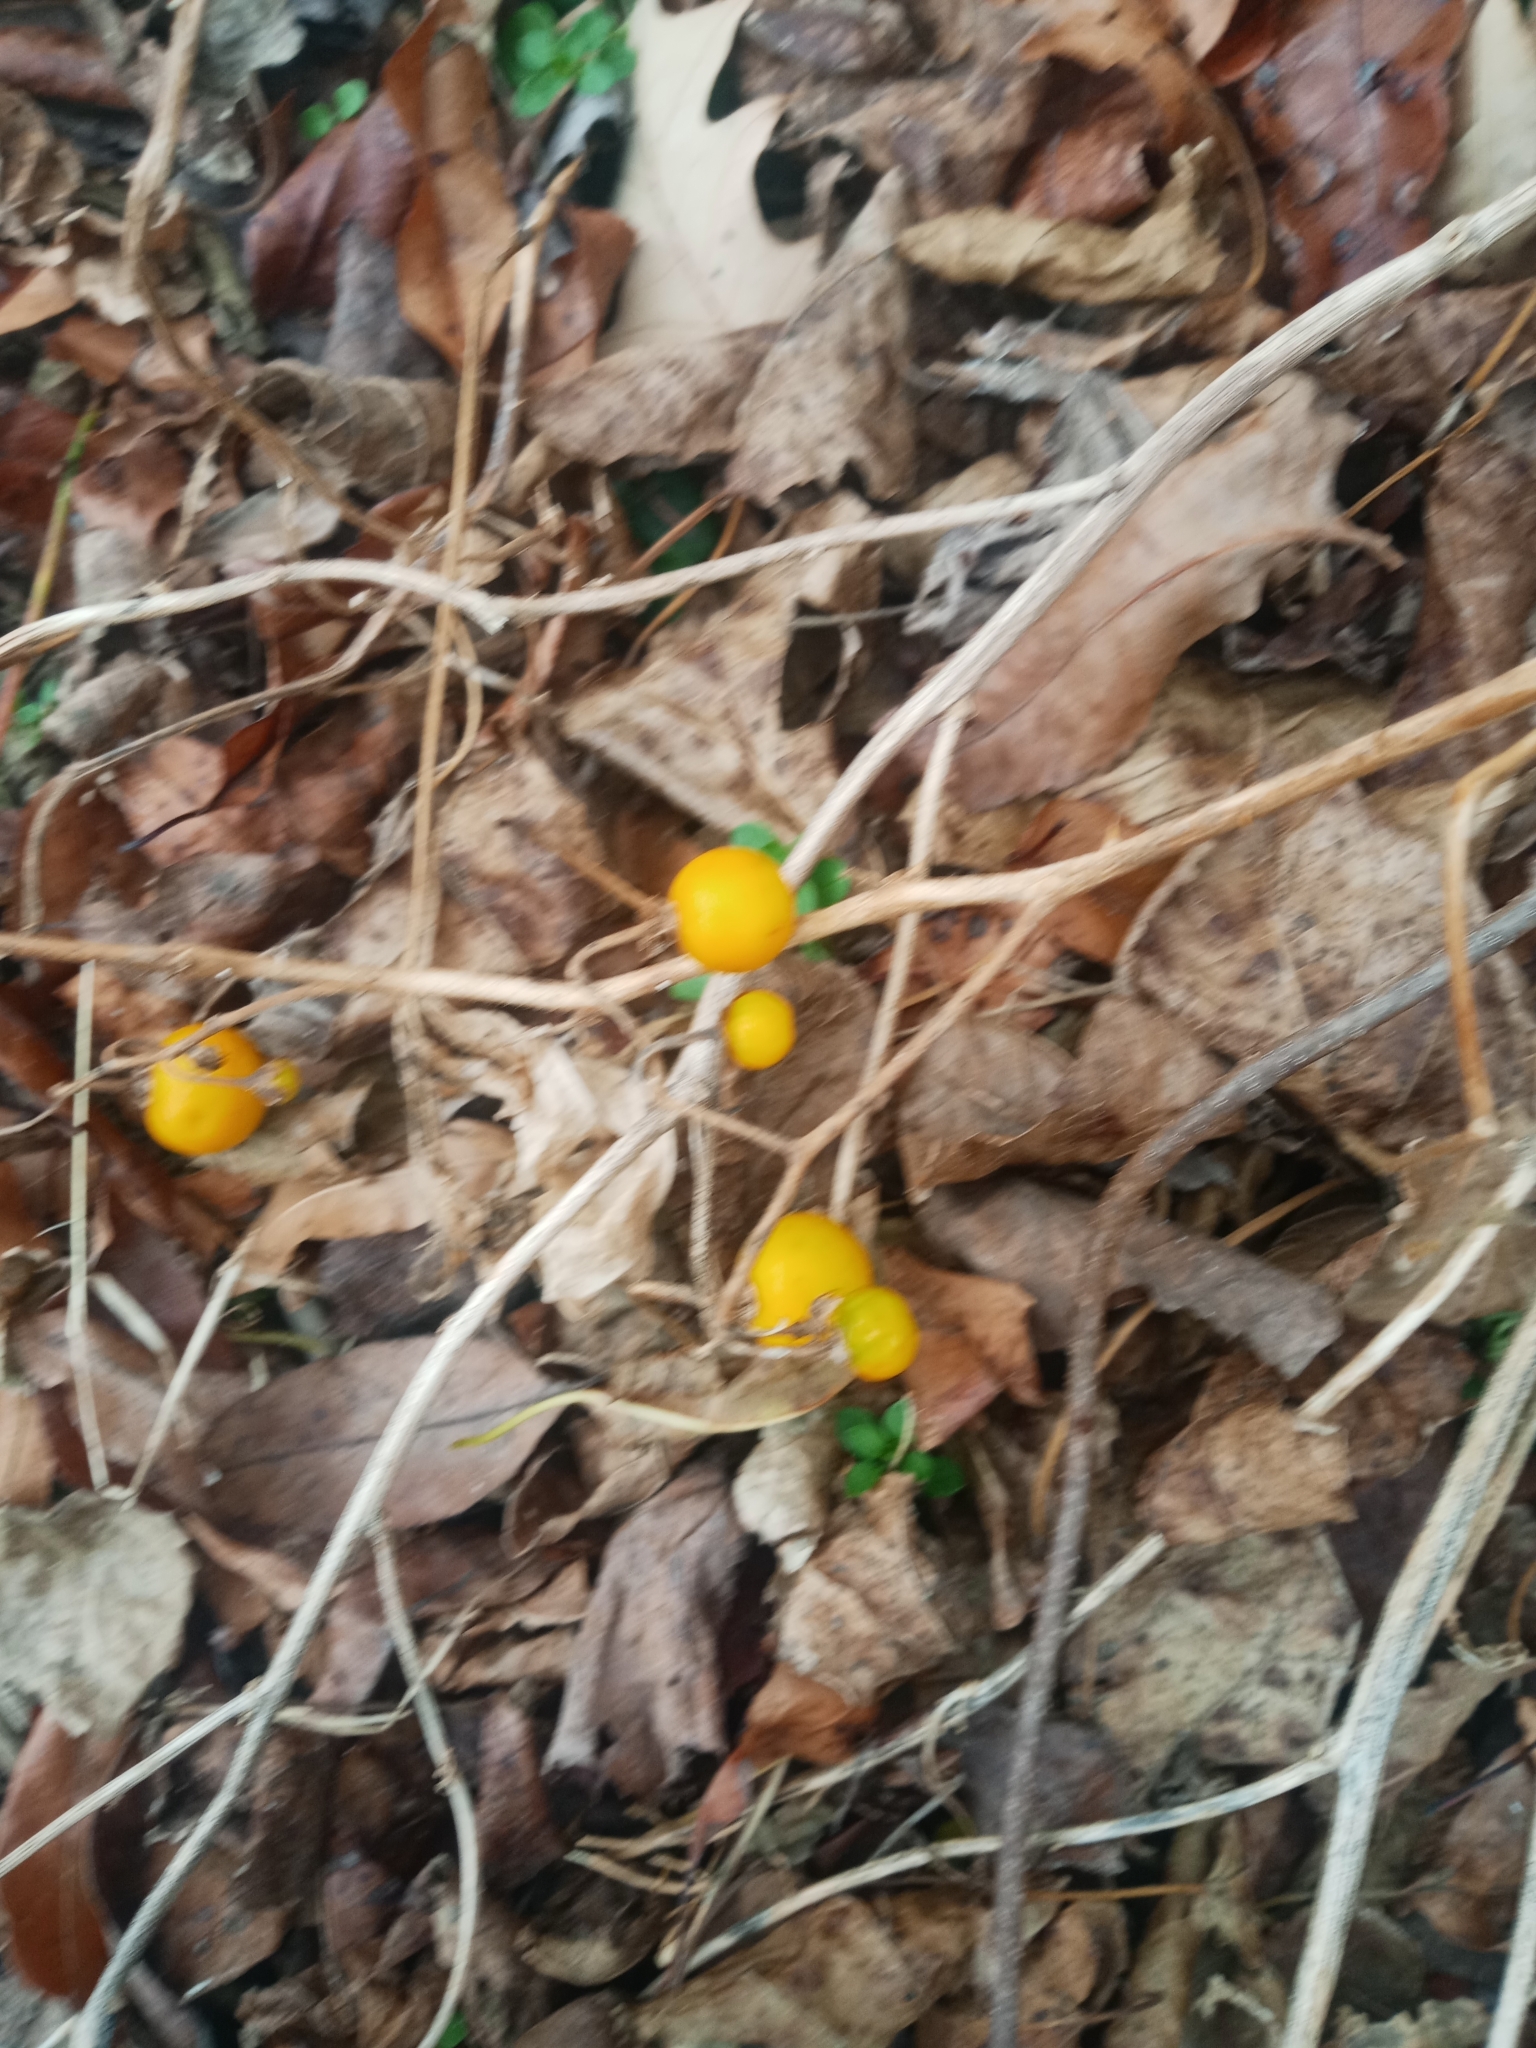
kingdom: Plantae
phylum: Tracheophyta
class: Magnoliopsida
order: Solanales
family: Solanaceae
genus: Solanum
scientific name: Solanum carolinense
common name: Horse-nettle
